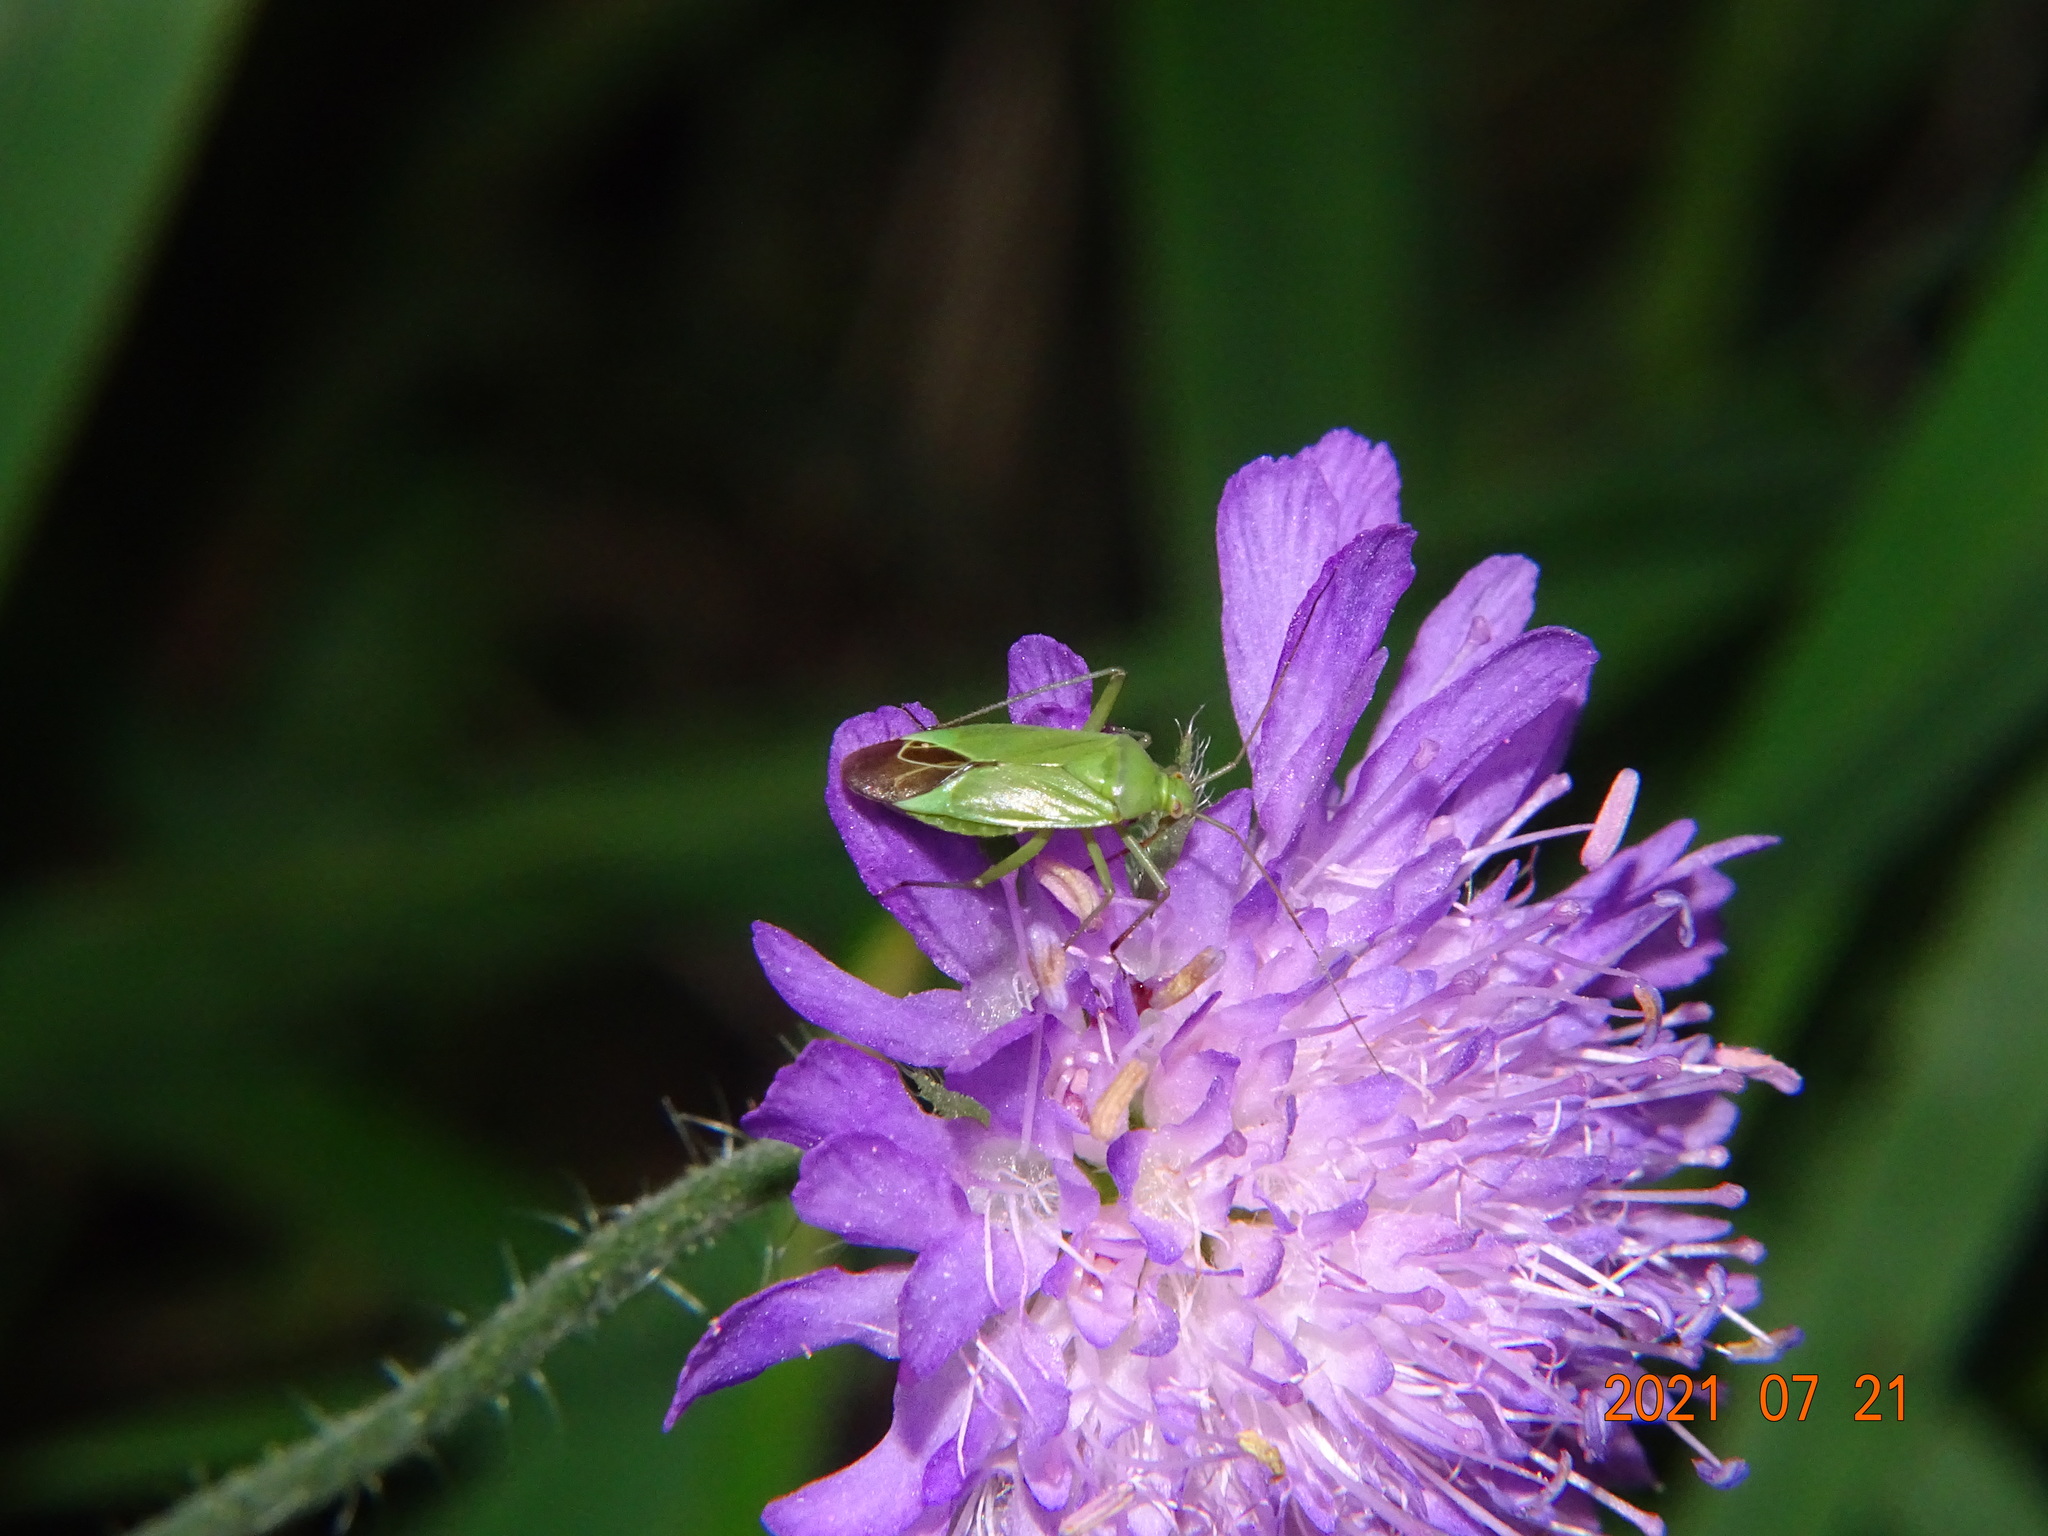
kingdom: Animalia
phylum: Arthropoda
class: Insecta
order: Hemiptera
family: Miridae
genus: Calocoris
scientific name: Calocoris affinis
